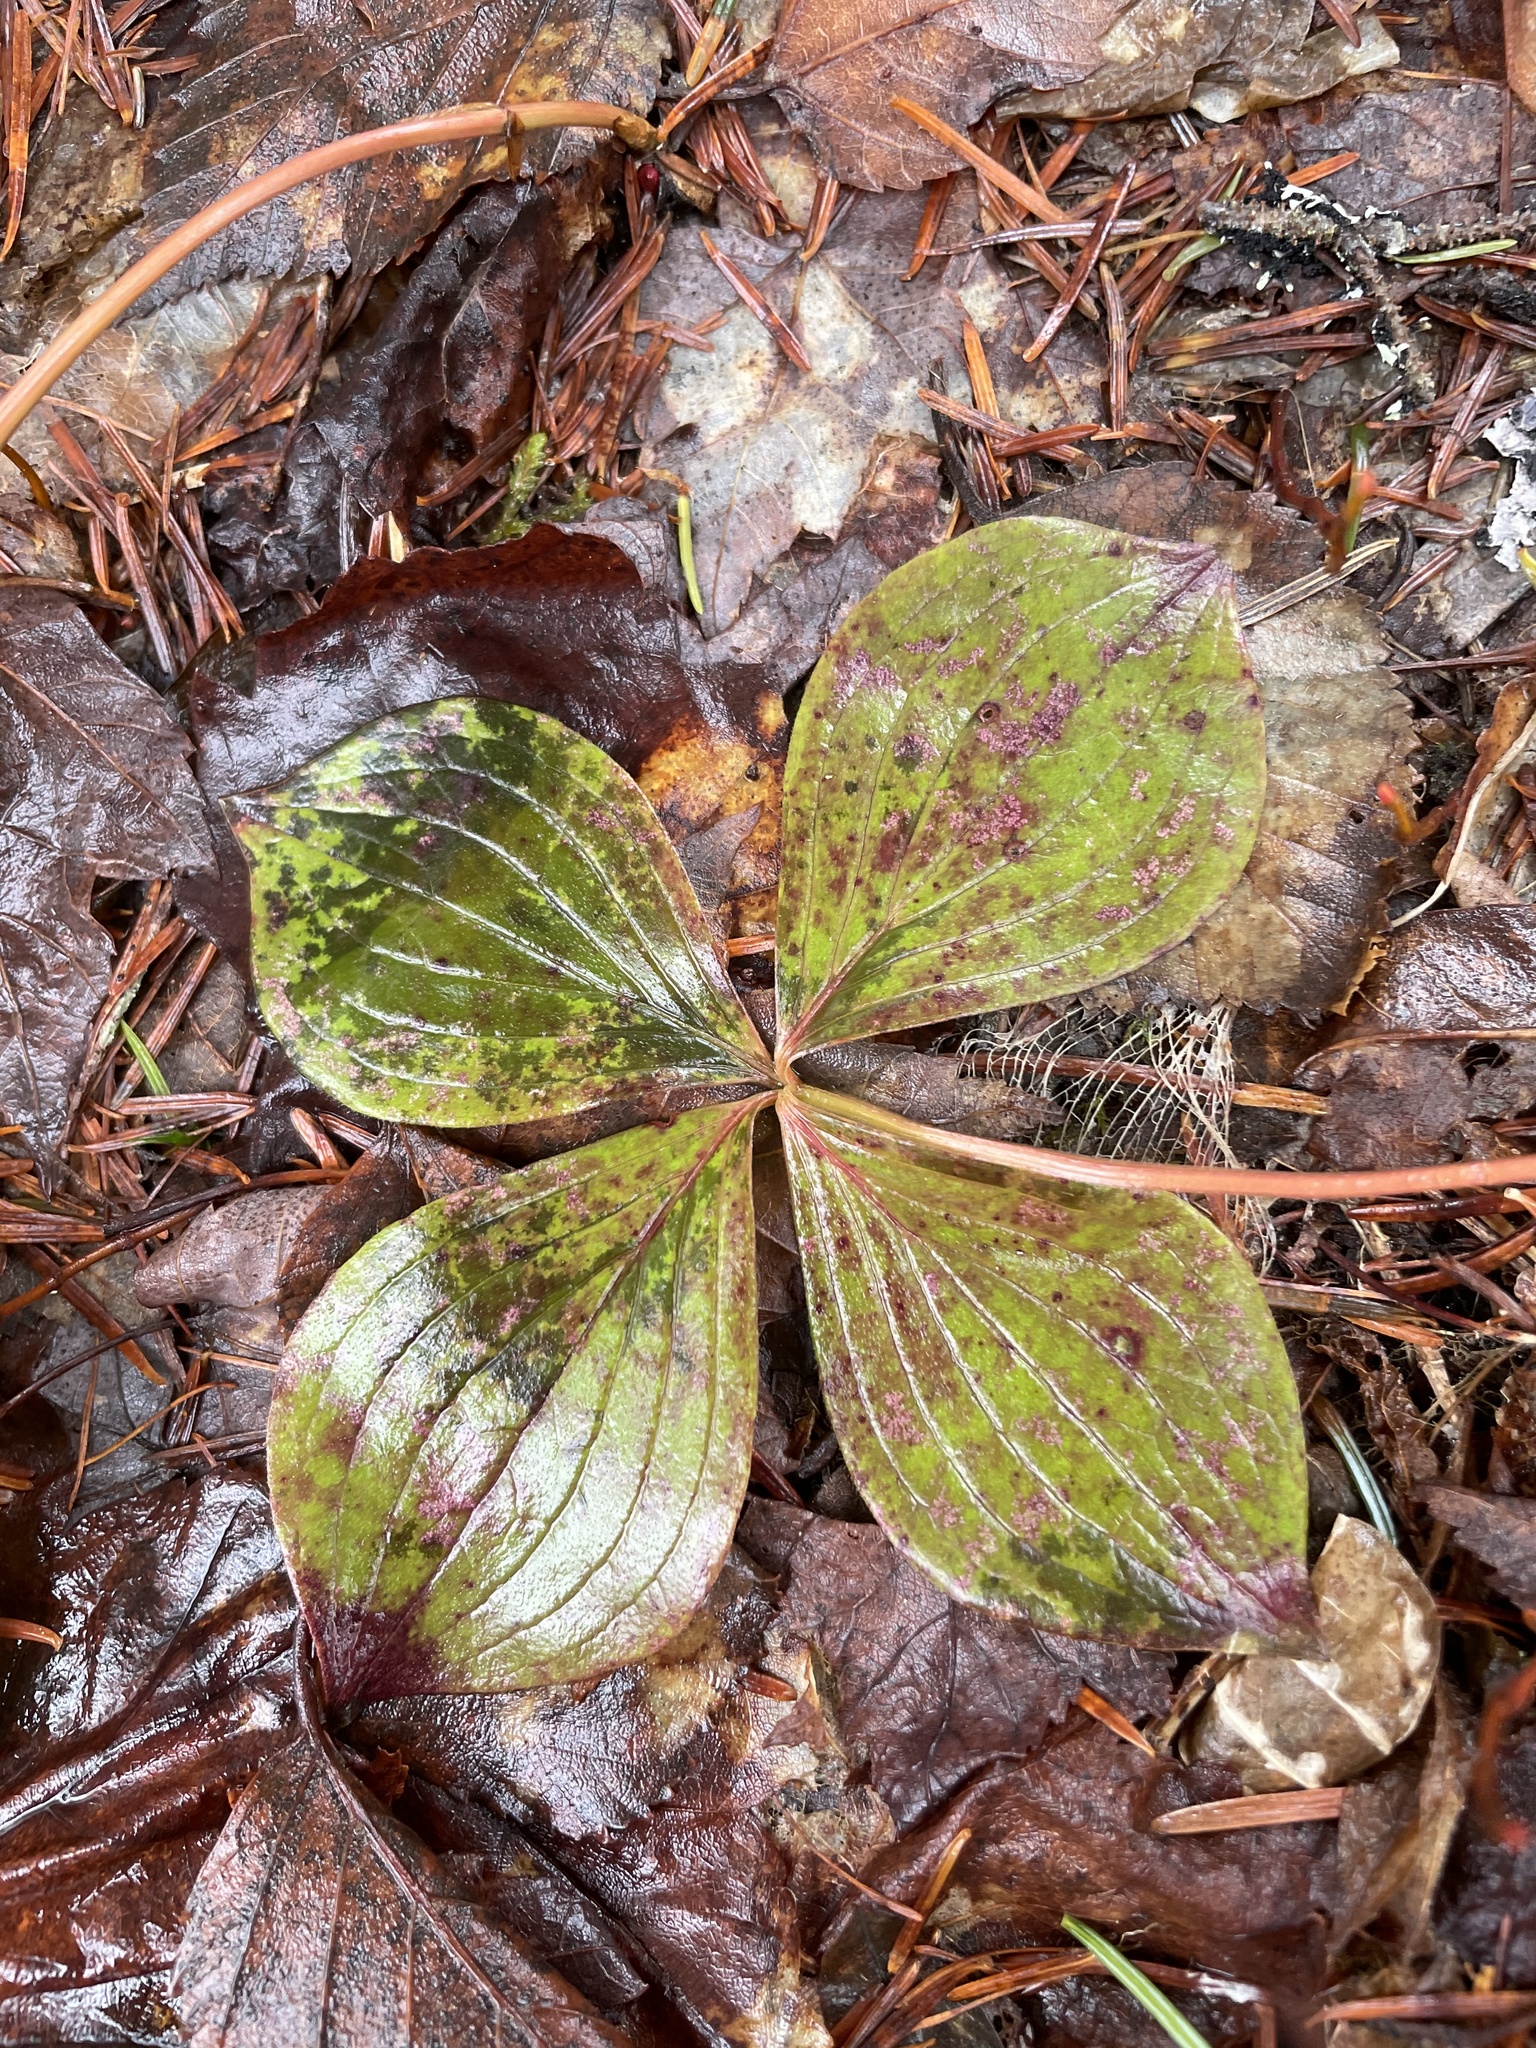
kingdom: Plantae
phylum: Tracheophyta
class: Magnoliopsida
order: Cornales
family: Cornaceae
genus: Cornus
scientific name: Cornus canadensis
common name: Creeping dogwood
